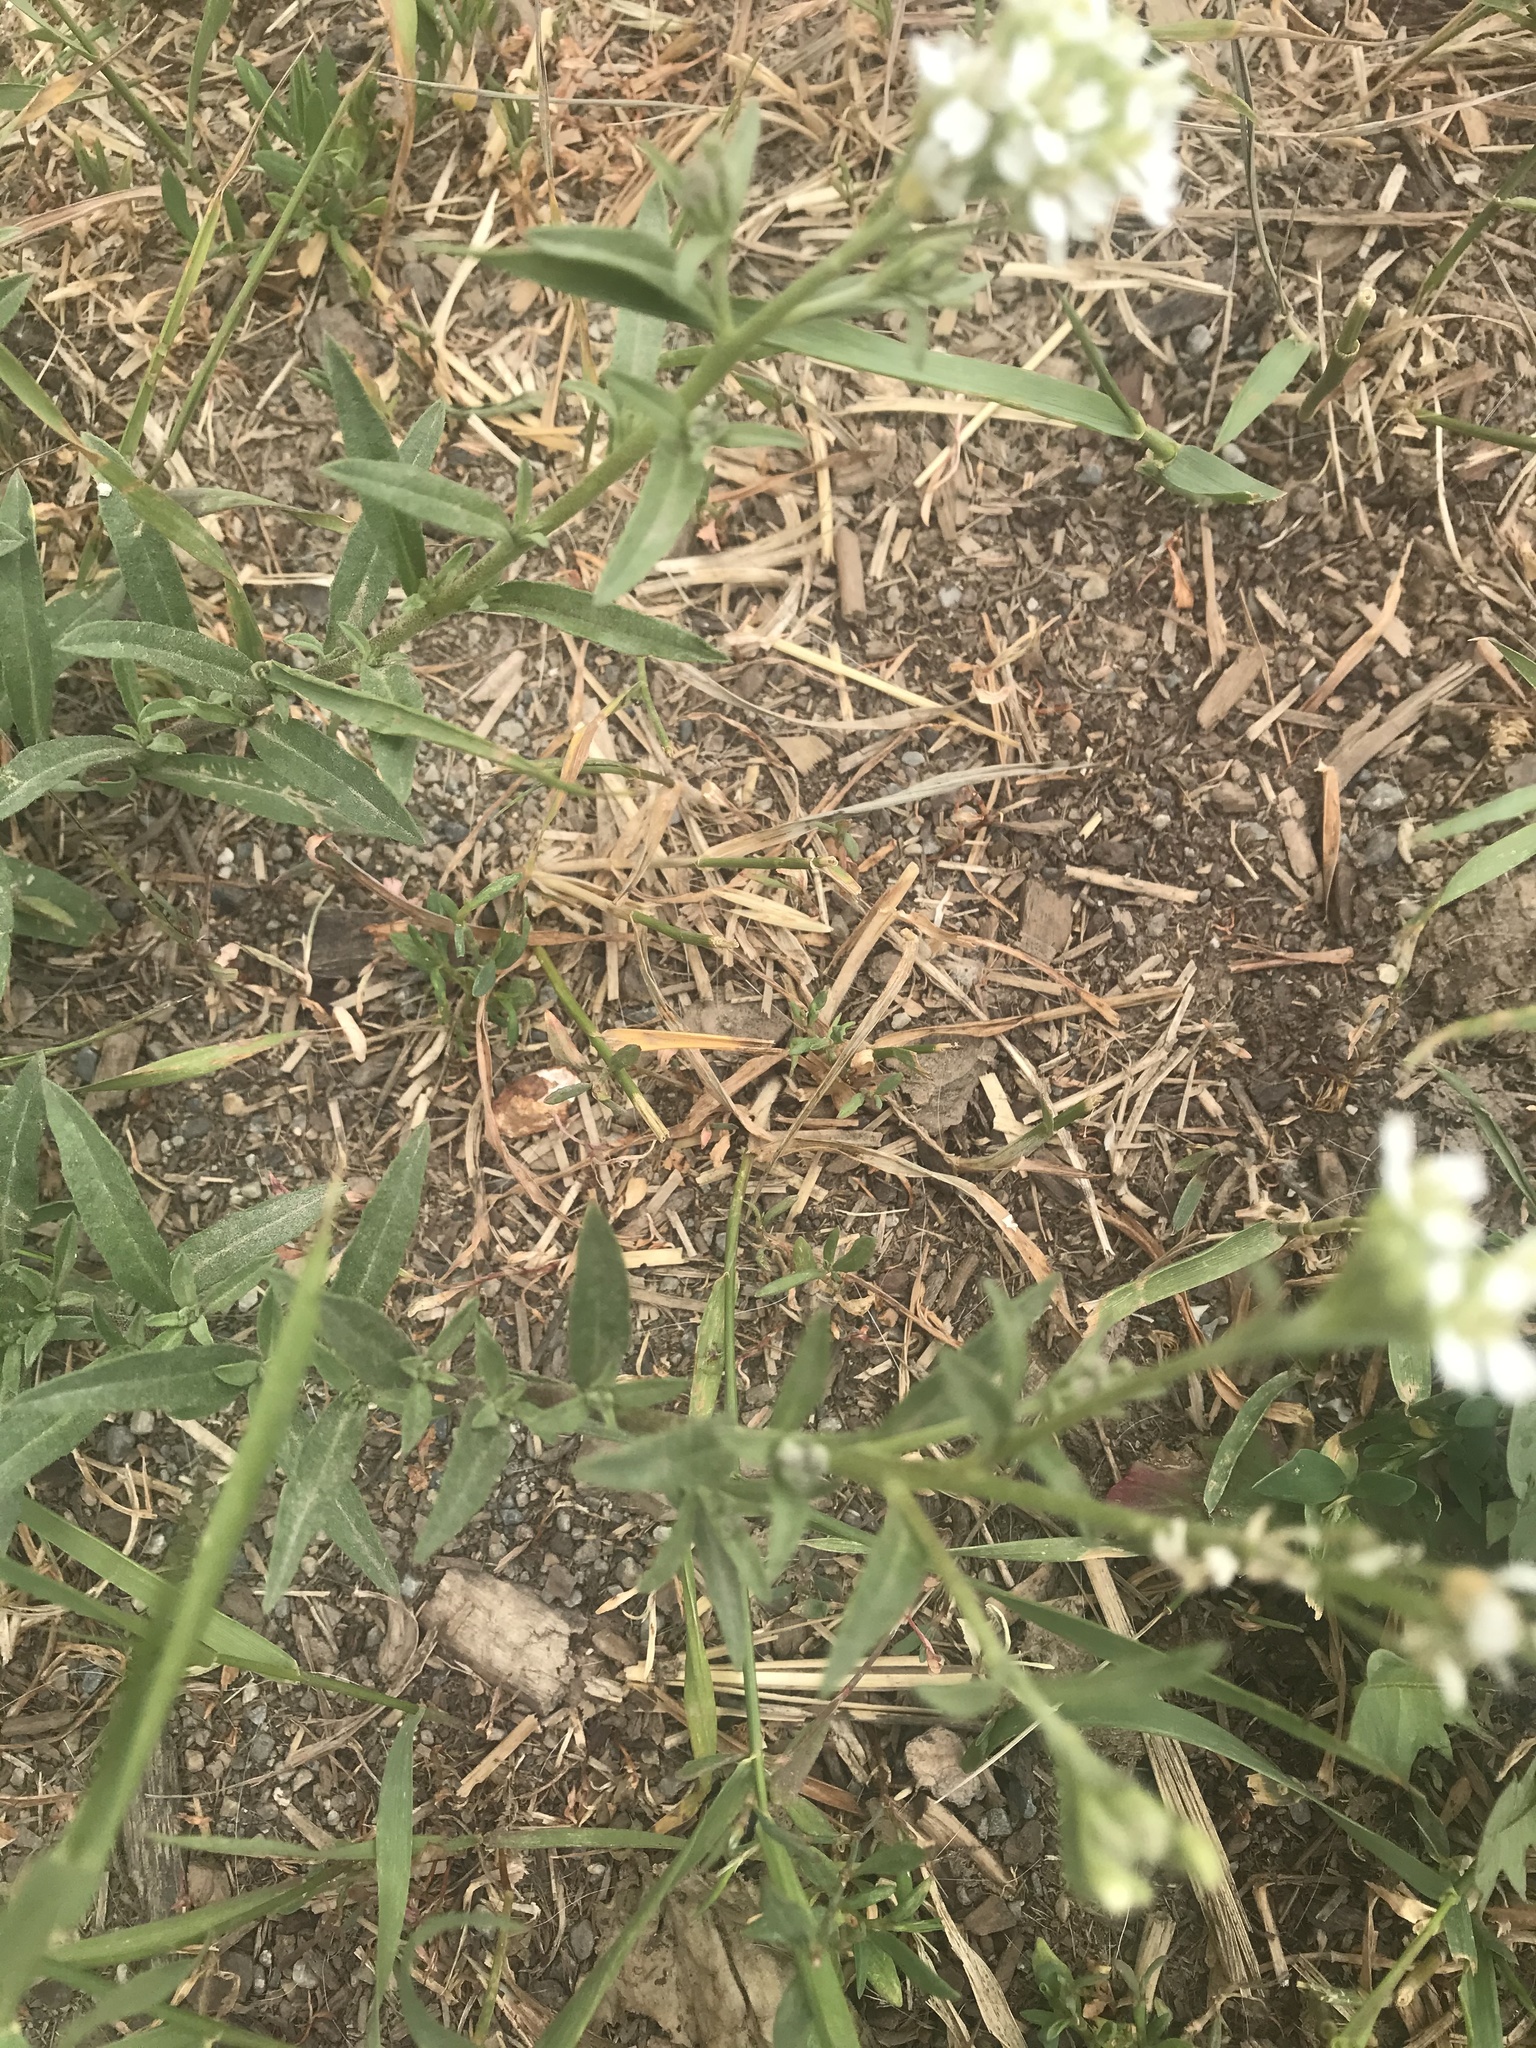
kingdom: Plantae
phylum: Tracheophyta
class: Magnoliopsida
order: Brassicales
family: Brassicaceae
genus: Berteroa
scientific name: Berteroa incana
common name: Hoary alison
